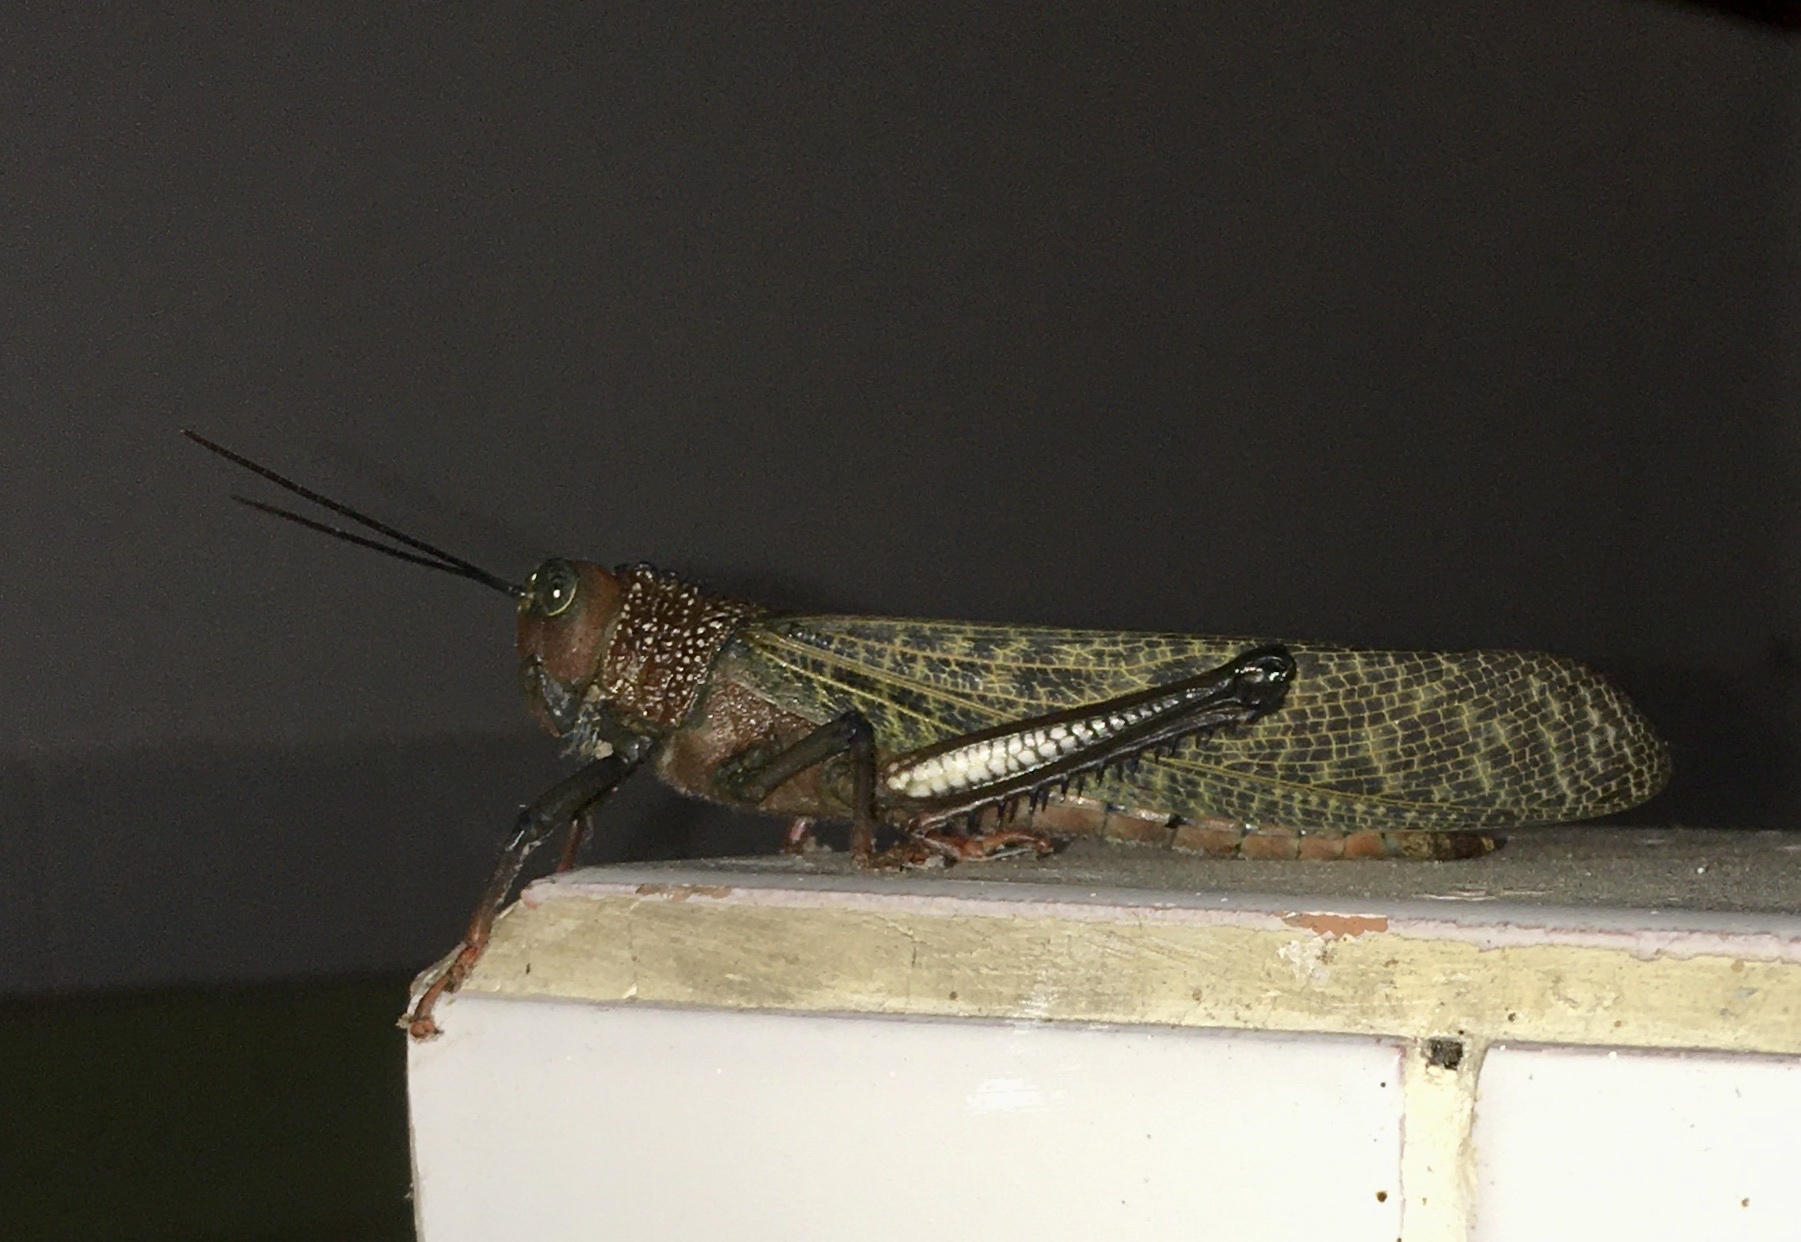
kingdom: Animalia
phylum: Arthropoda
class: Insecta
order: Orthoptera
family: Romaleidae
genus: Tropidacris
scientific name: Tropidacris cristata
